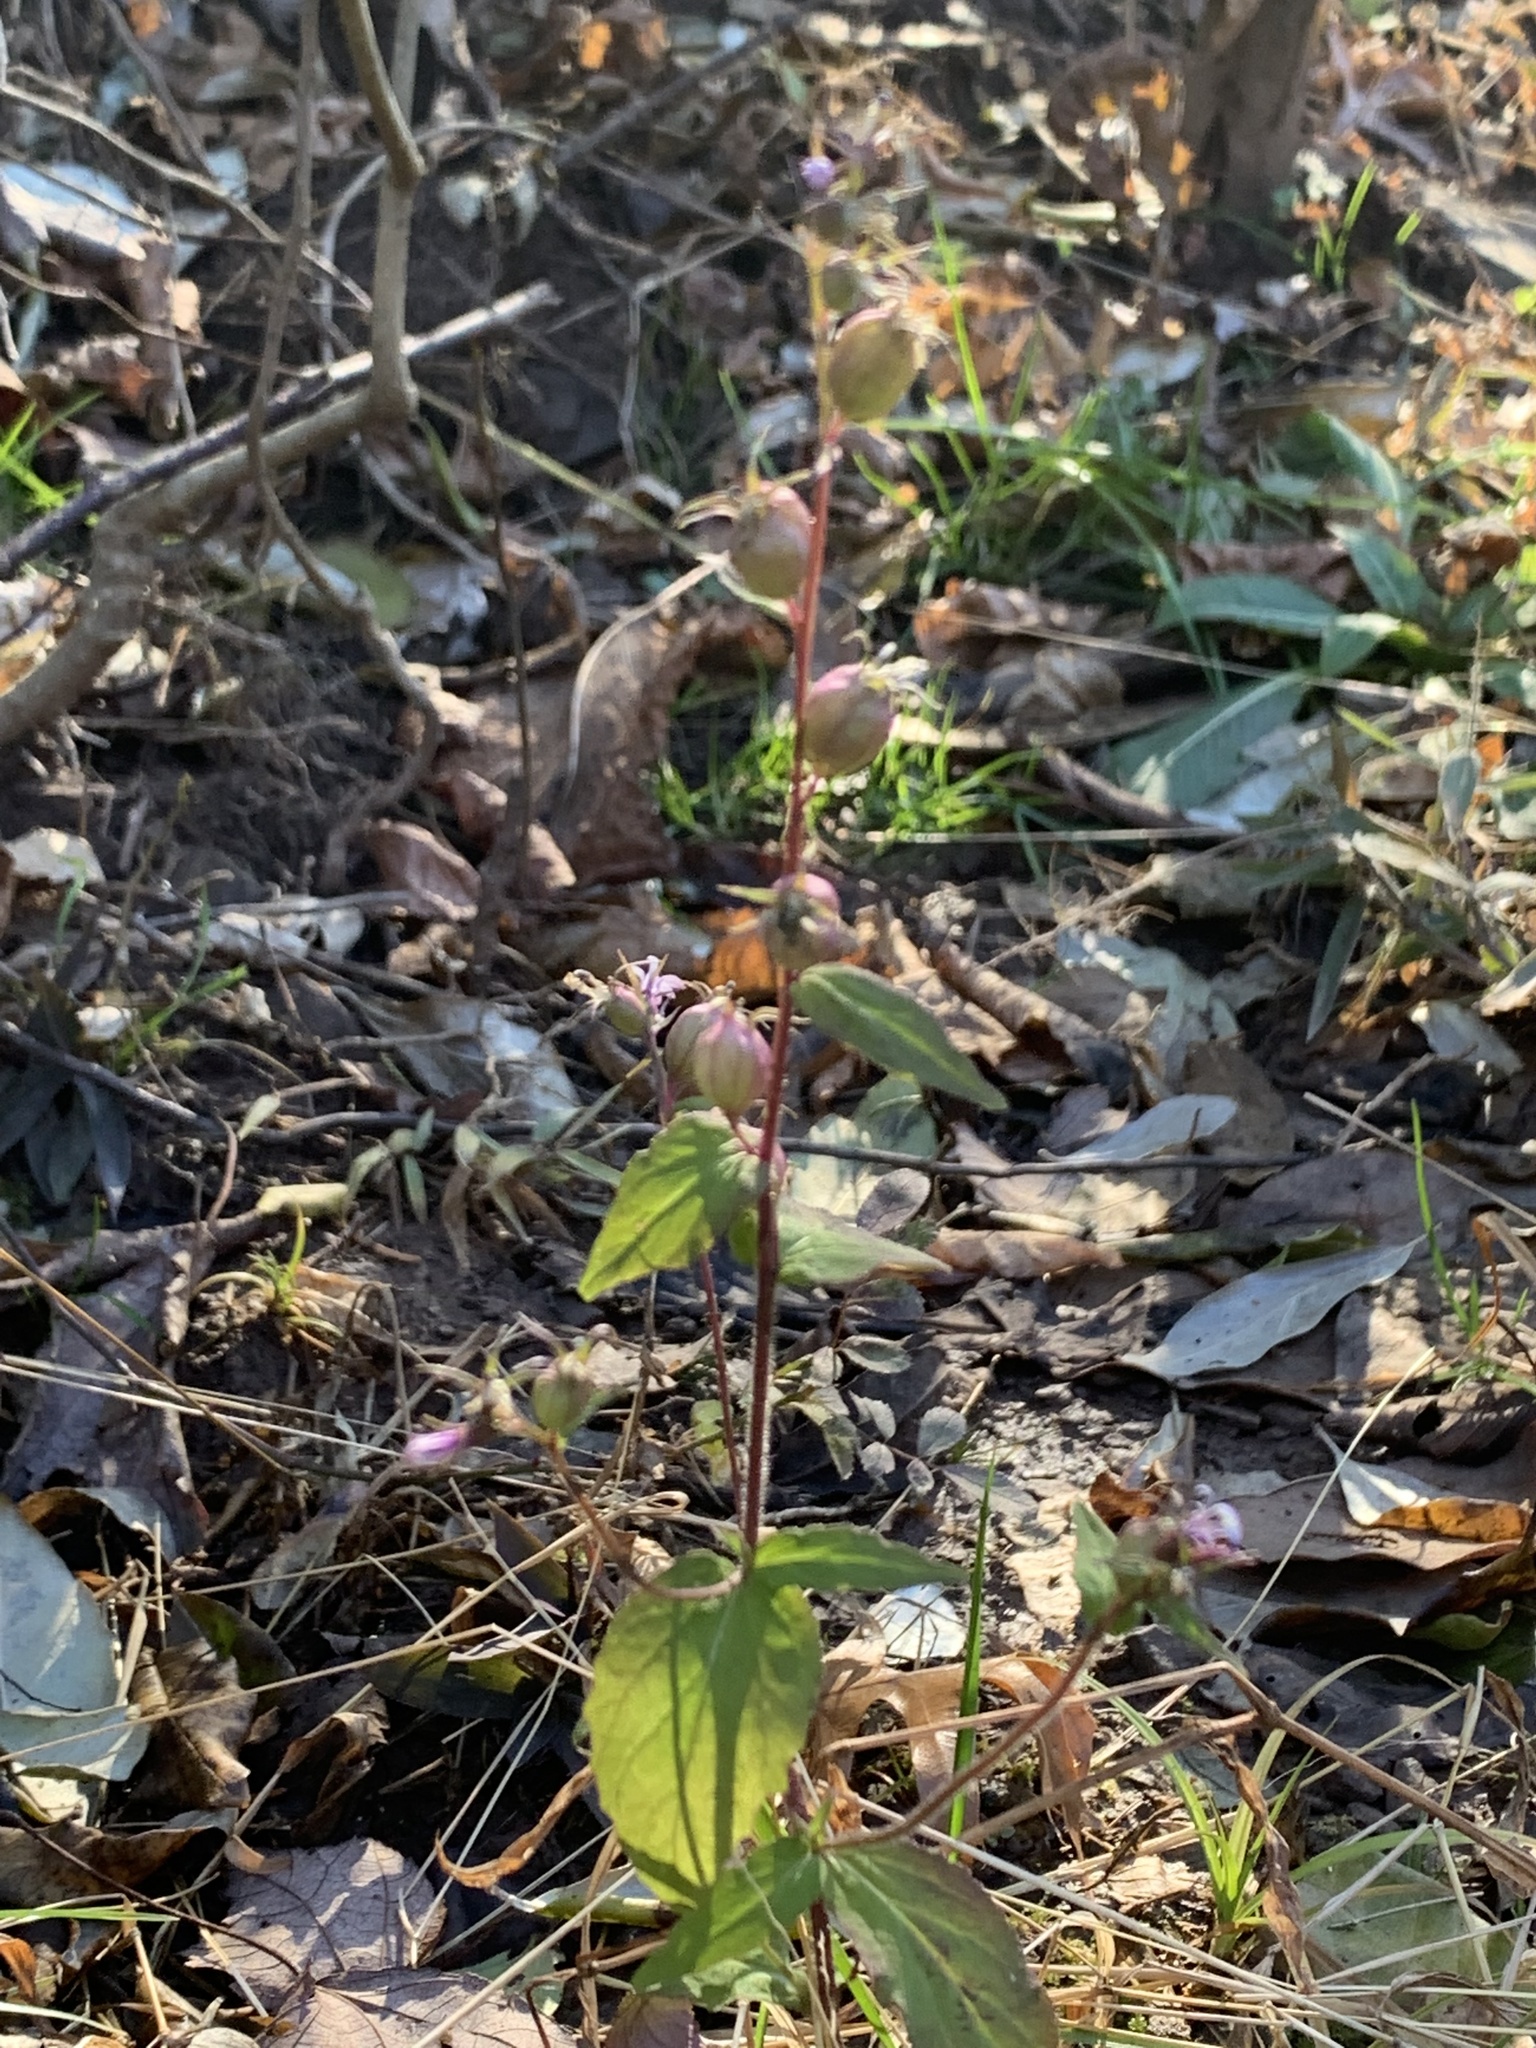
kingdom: Plantae
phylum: Tracheophyta
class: Magnoliopsida
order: Asterales
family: Campanulaceae
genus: Lobelia
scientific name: Lobelia inflata
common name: Indian tobacco
